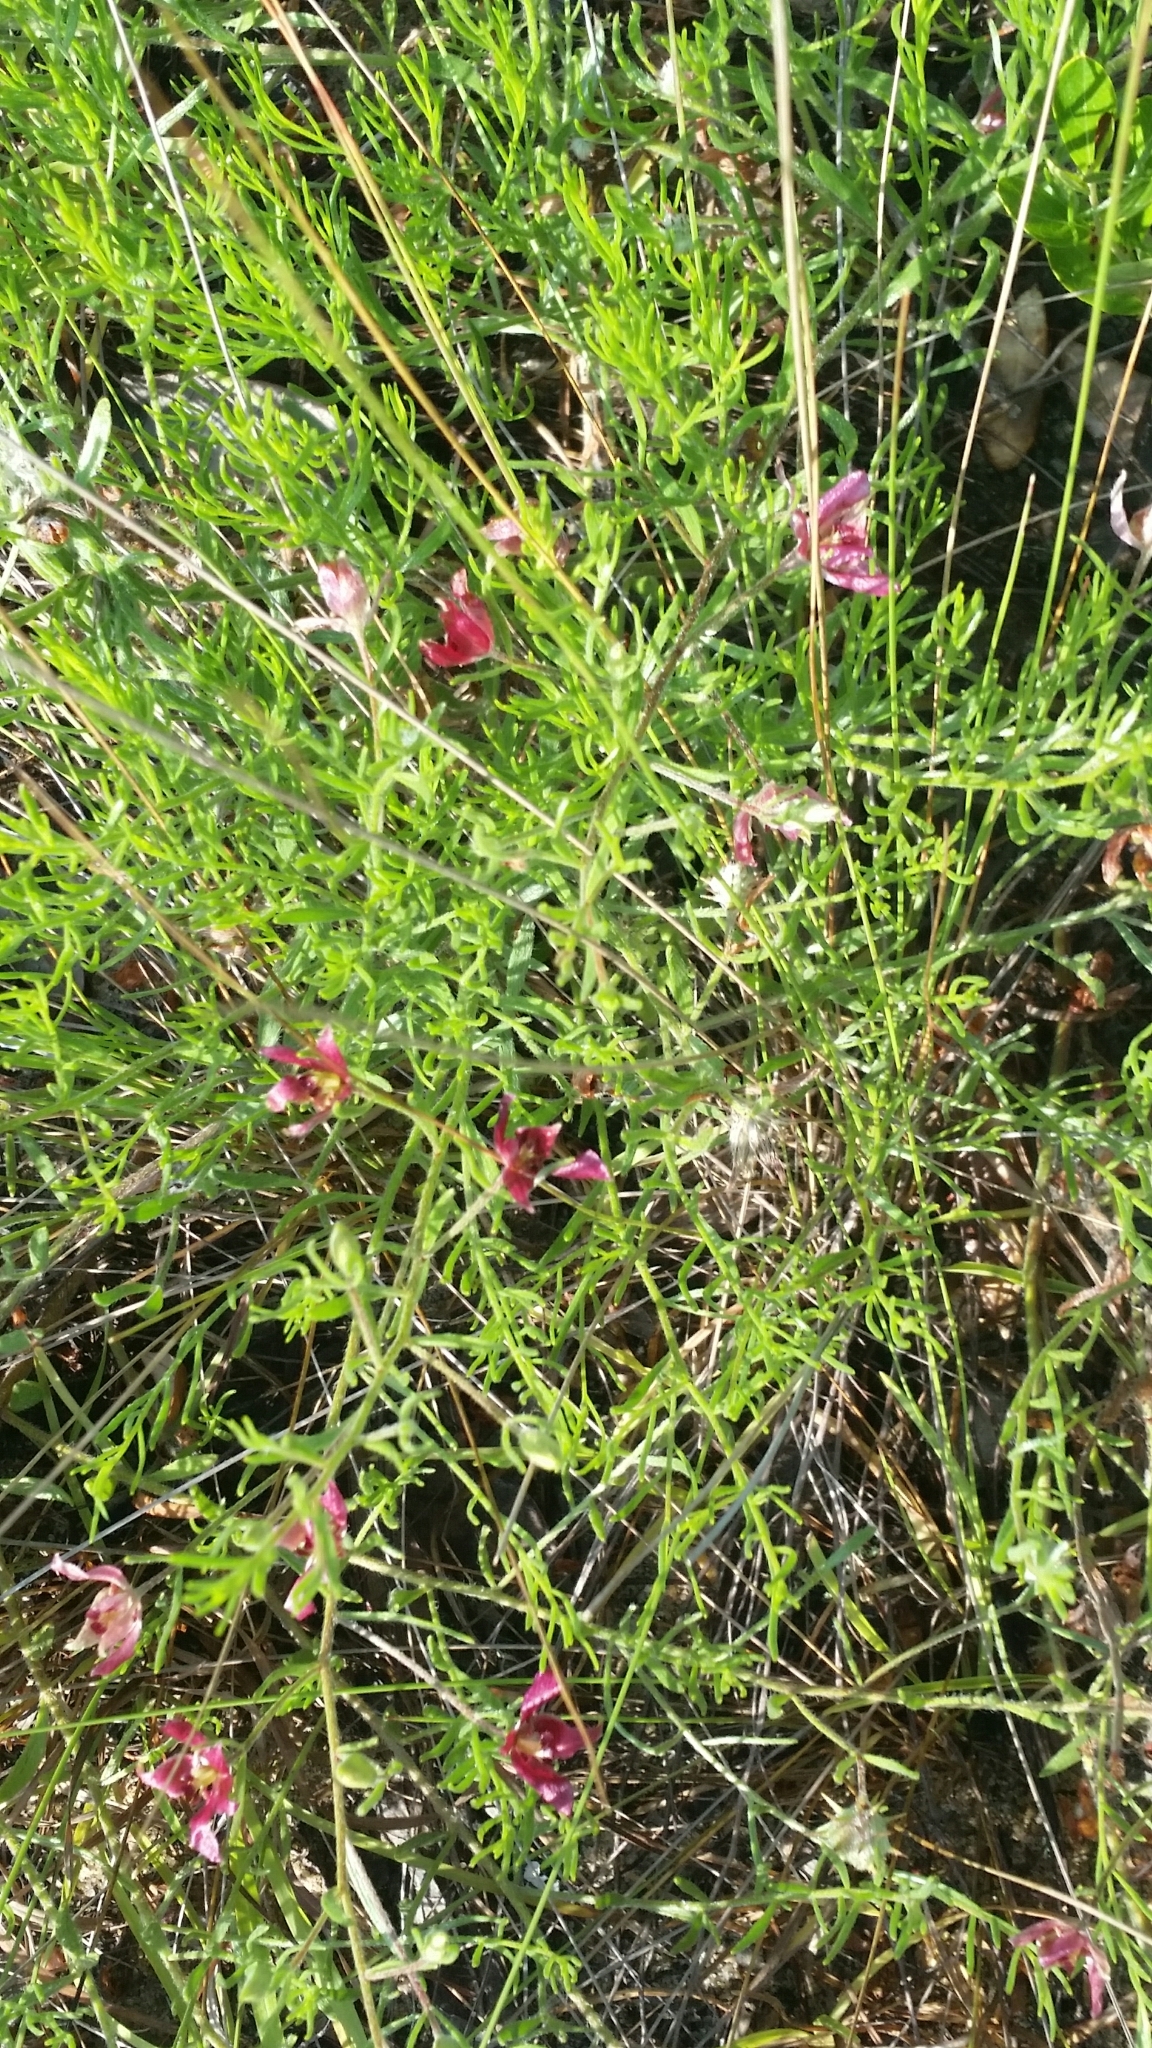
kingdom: Plantae
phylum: Tracheophyta
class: Magnoliopsida
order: Zygophyllales
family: Krameriaceae
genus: Krameria
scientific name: Krameria lanceolata
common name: Ratany
